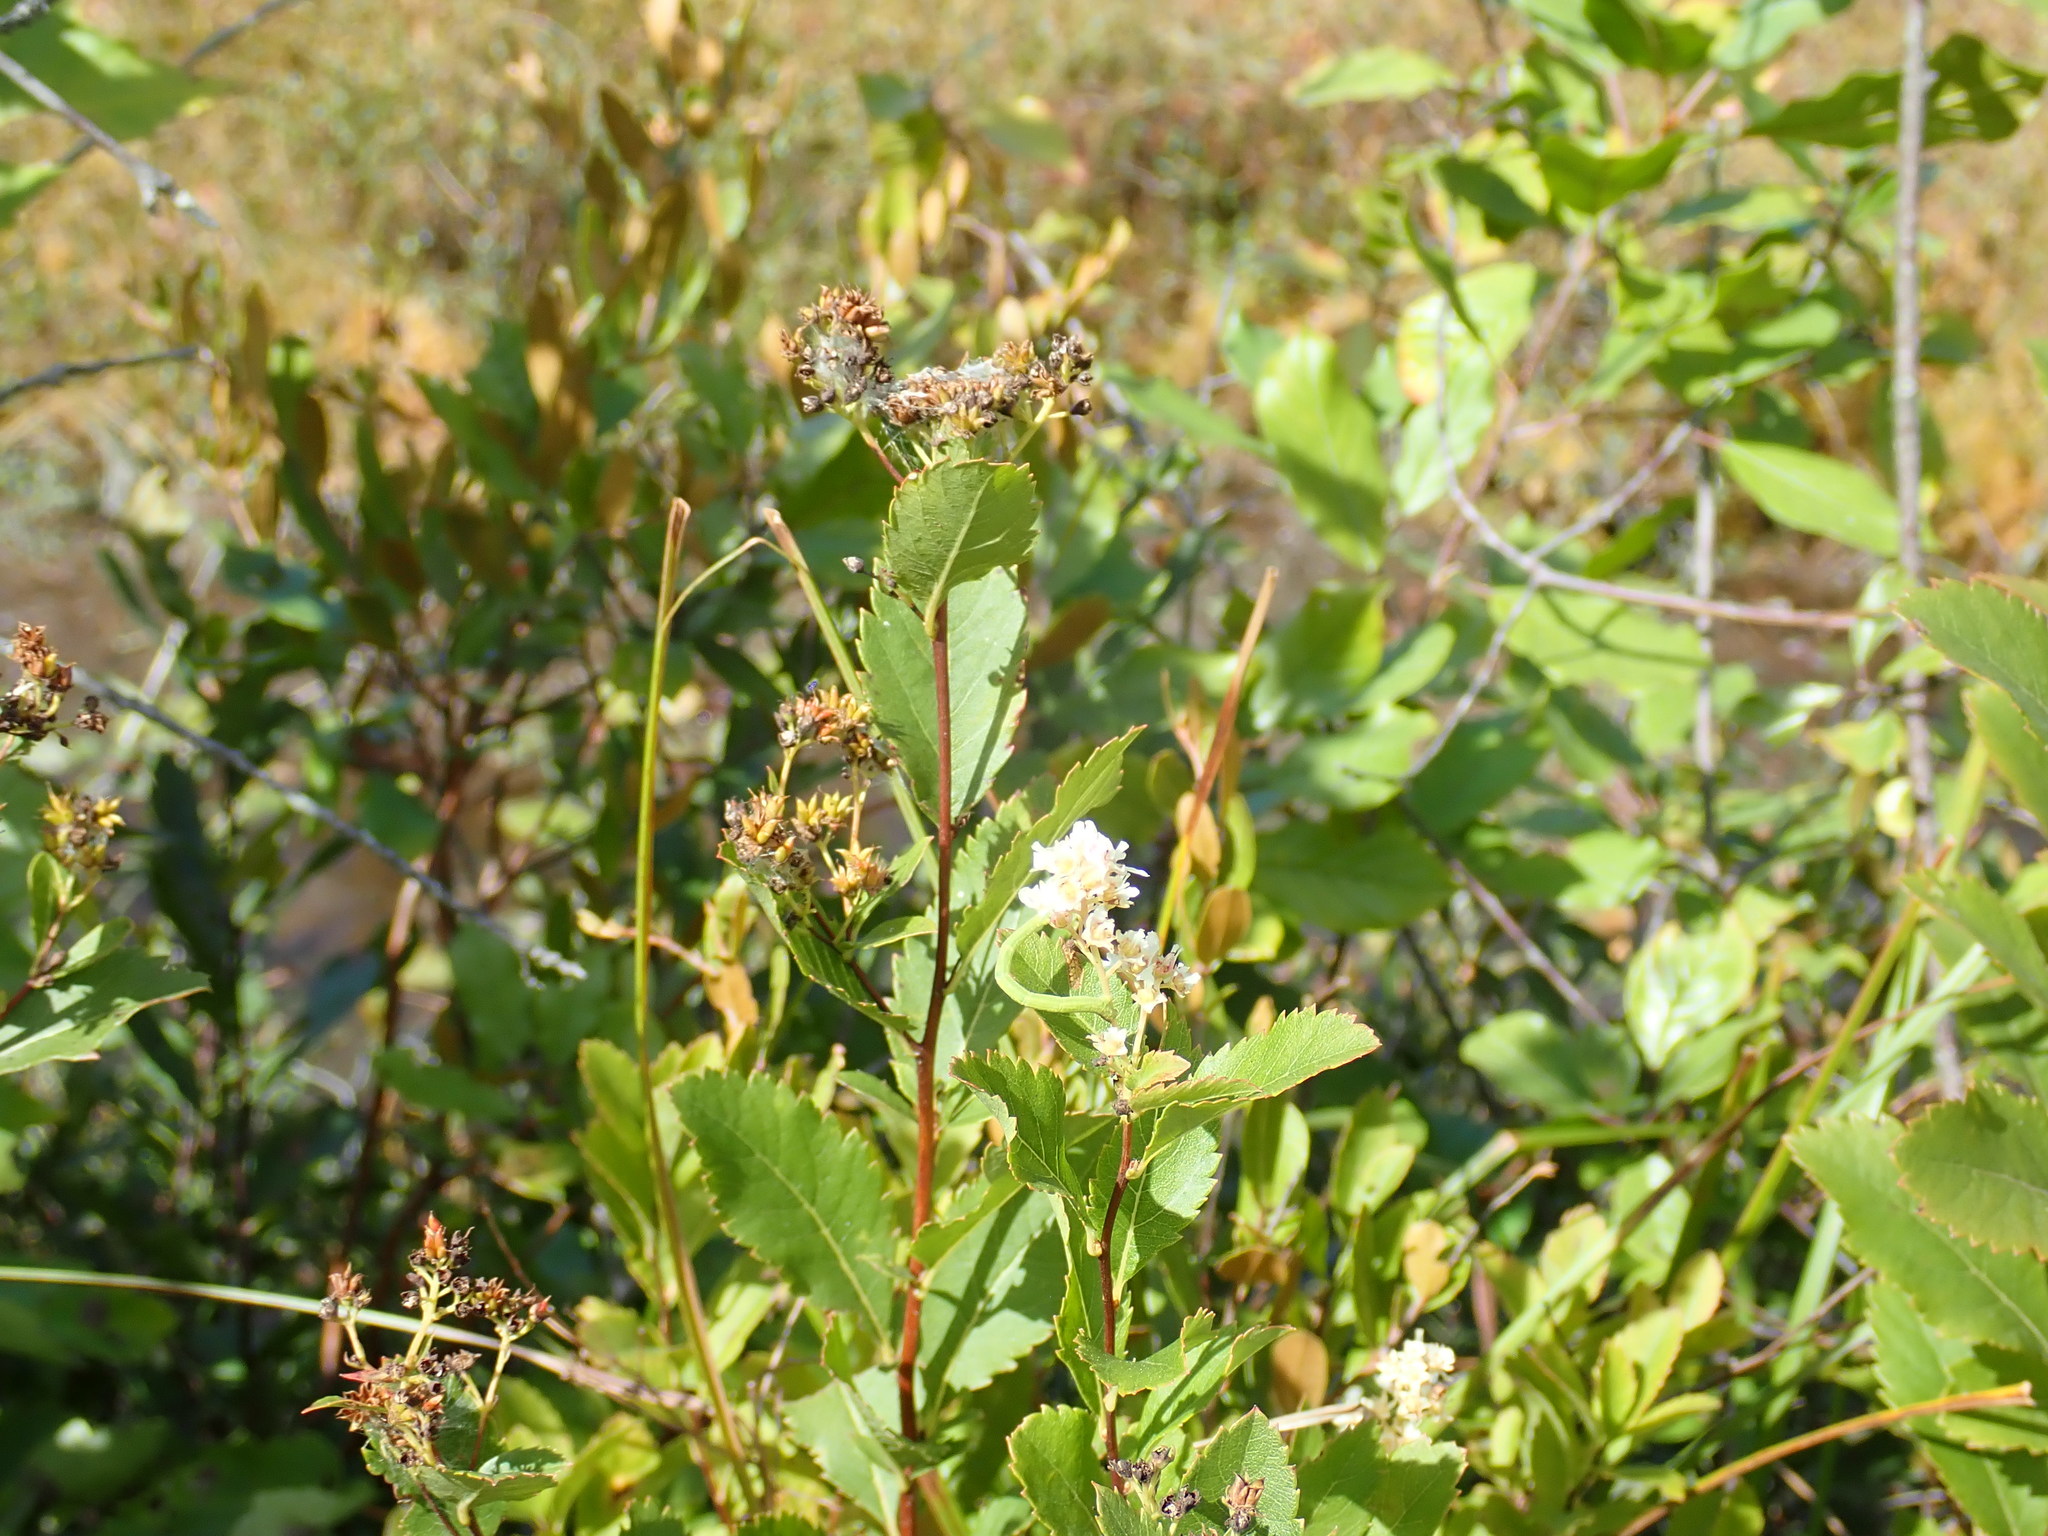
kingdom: Plantae
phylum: Tracheophyta
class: Magnoliopsida
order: Rosales
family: Rosaceae
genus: Spiraea
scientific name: Spiraea alba
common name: Pale bridewort
